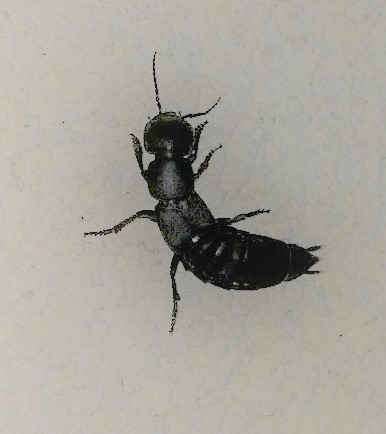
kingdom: Animalia
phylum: Arthropoda
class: Insecta
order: Coleoptera
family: Staphylinidae
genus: Ocypus
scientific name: Ocypus olens
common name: Devil's coach-horse
